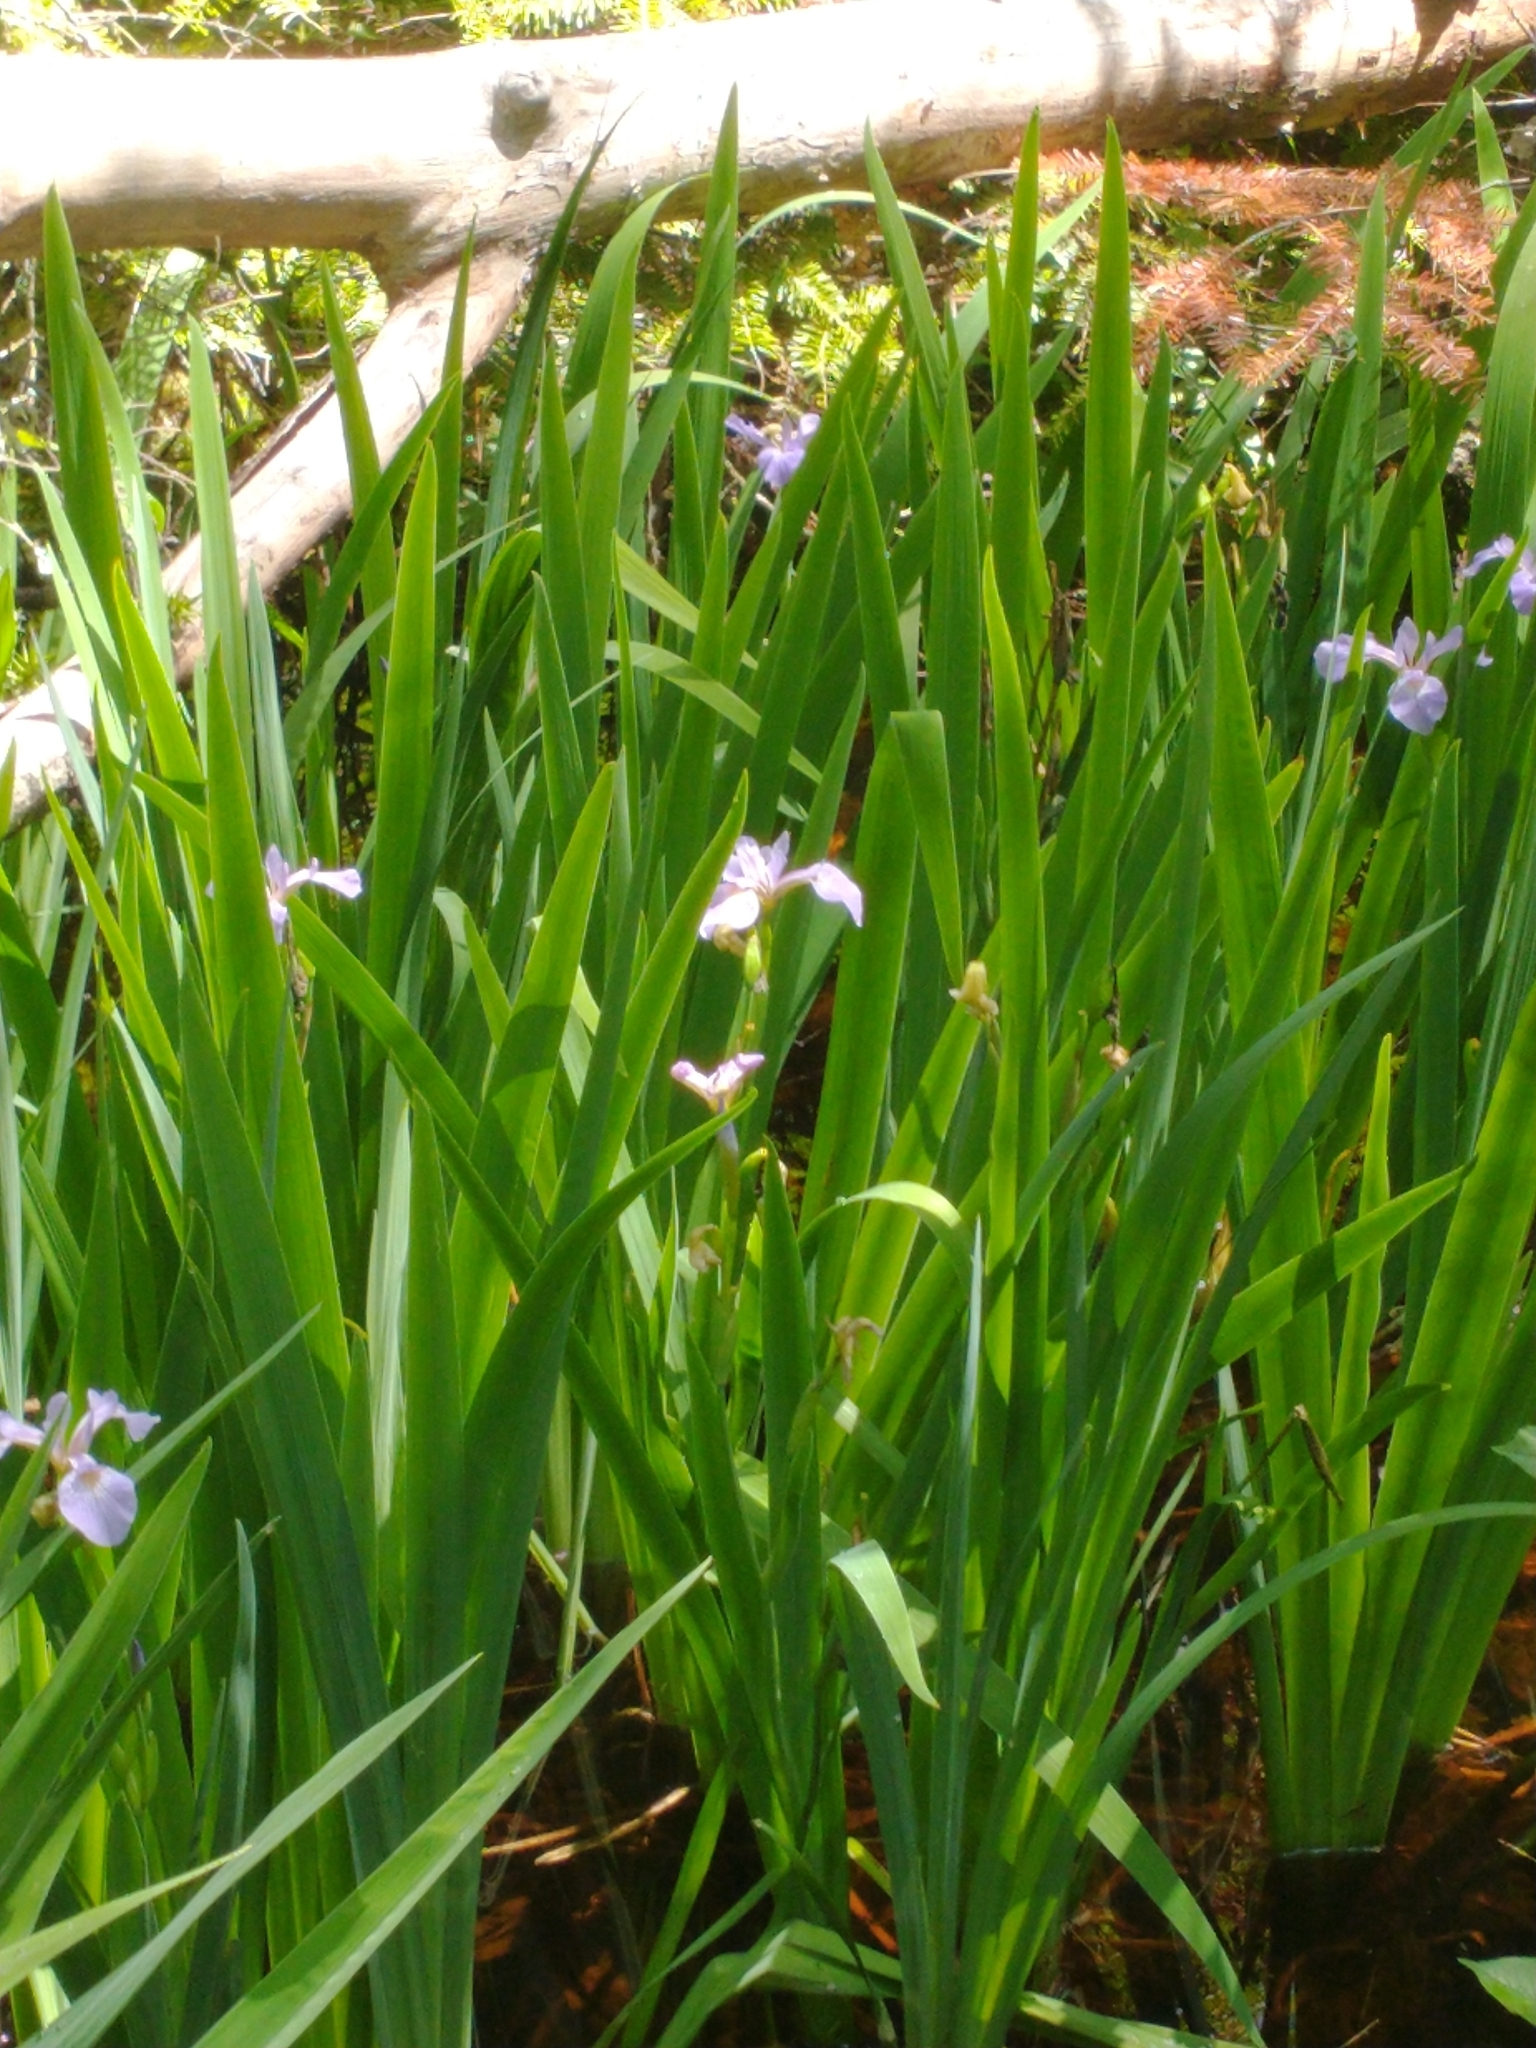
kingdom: Plantae
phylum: Tracheophyta
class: Liliopsida
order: Asparagales
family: Iridaceae
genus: Iris
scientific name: Iris versicolor
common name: Purple iris
